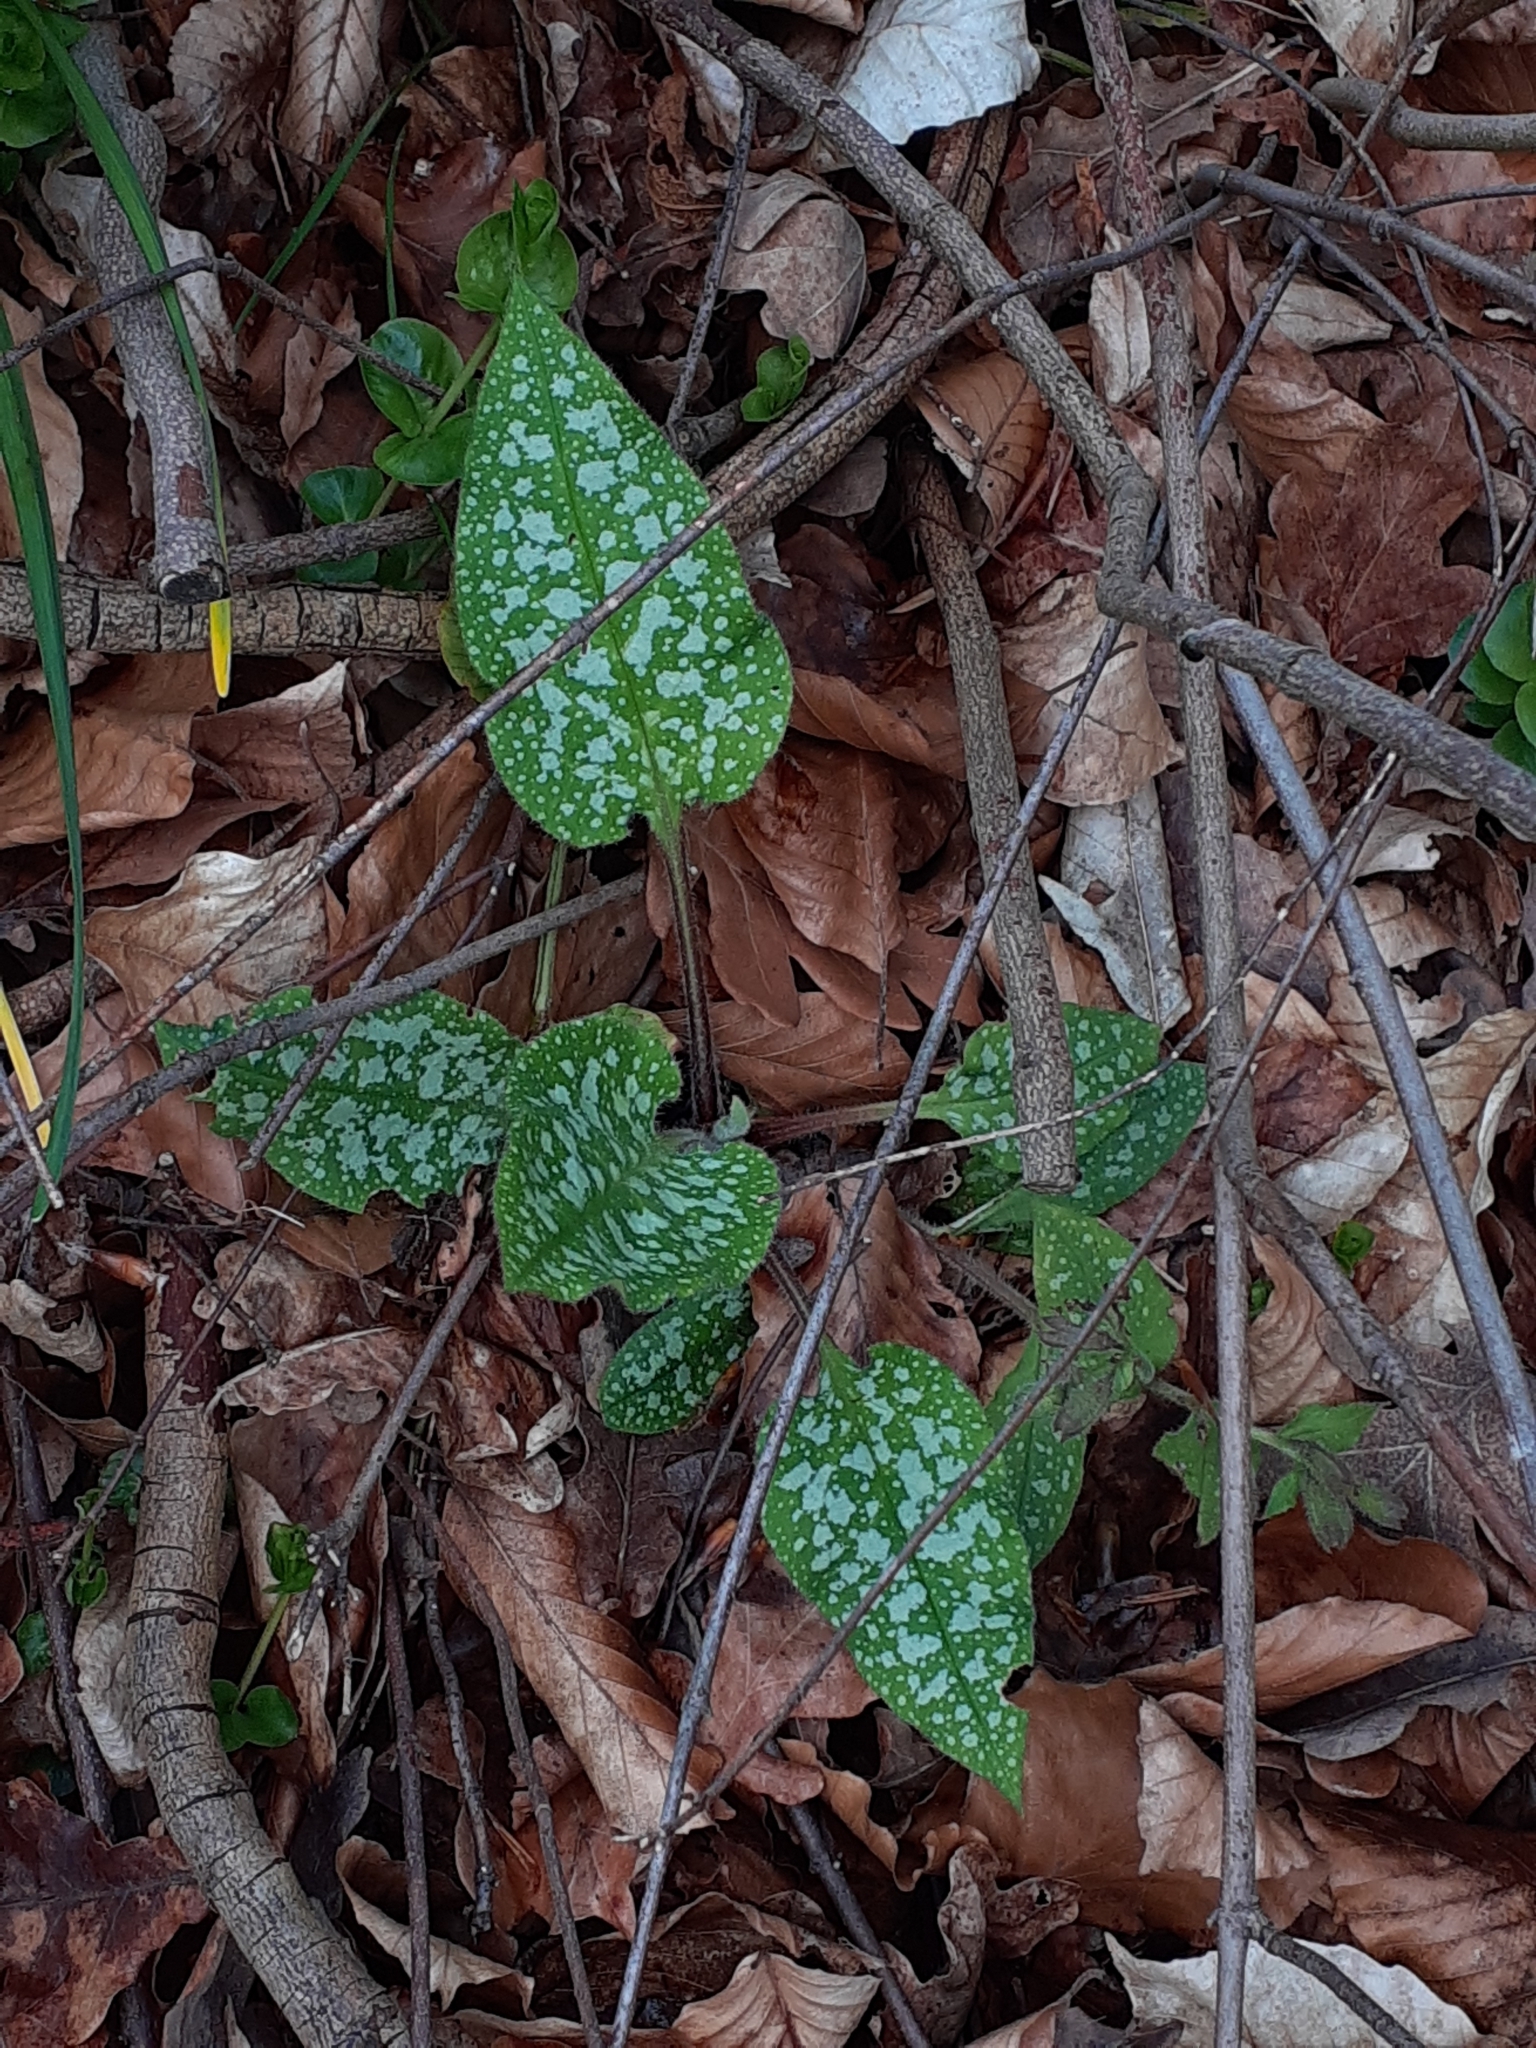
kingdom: Plantae
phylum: Tracheophyta
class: Magnoliopsida
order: Boraginales
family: Boraginaceae
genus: Pulmonaria
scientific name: Pulmonaria officinalis
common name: Lungwort
